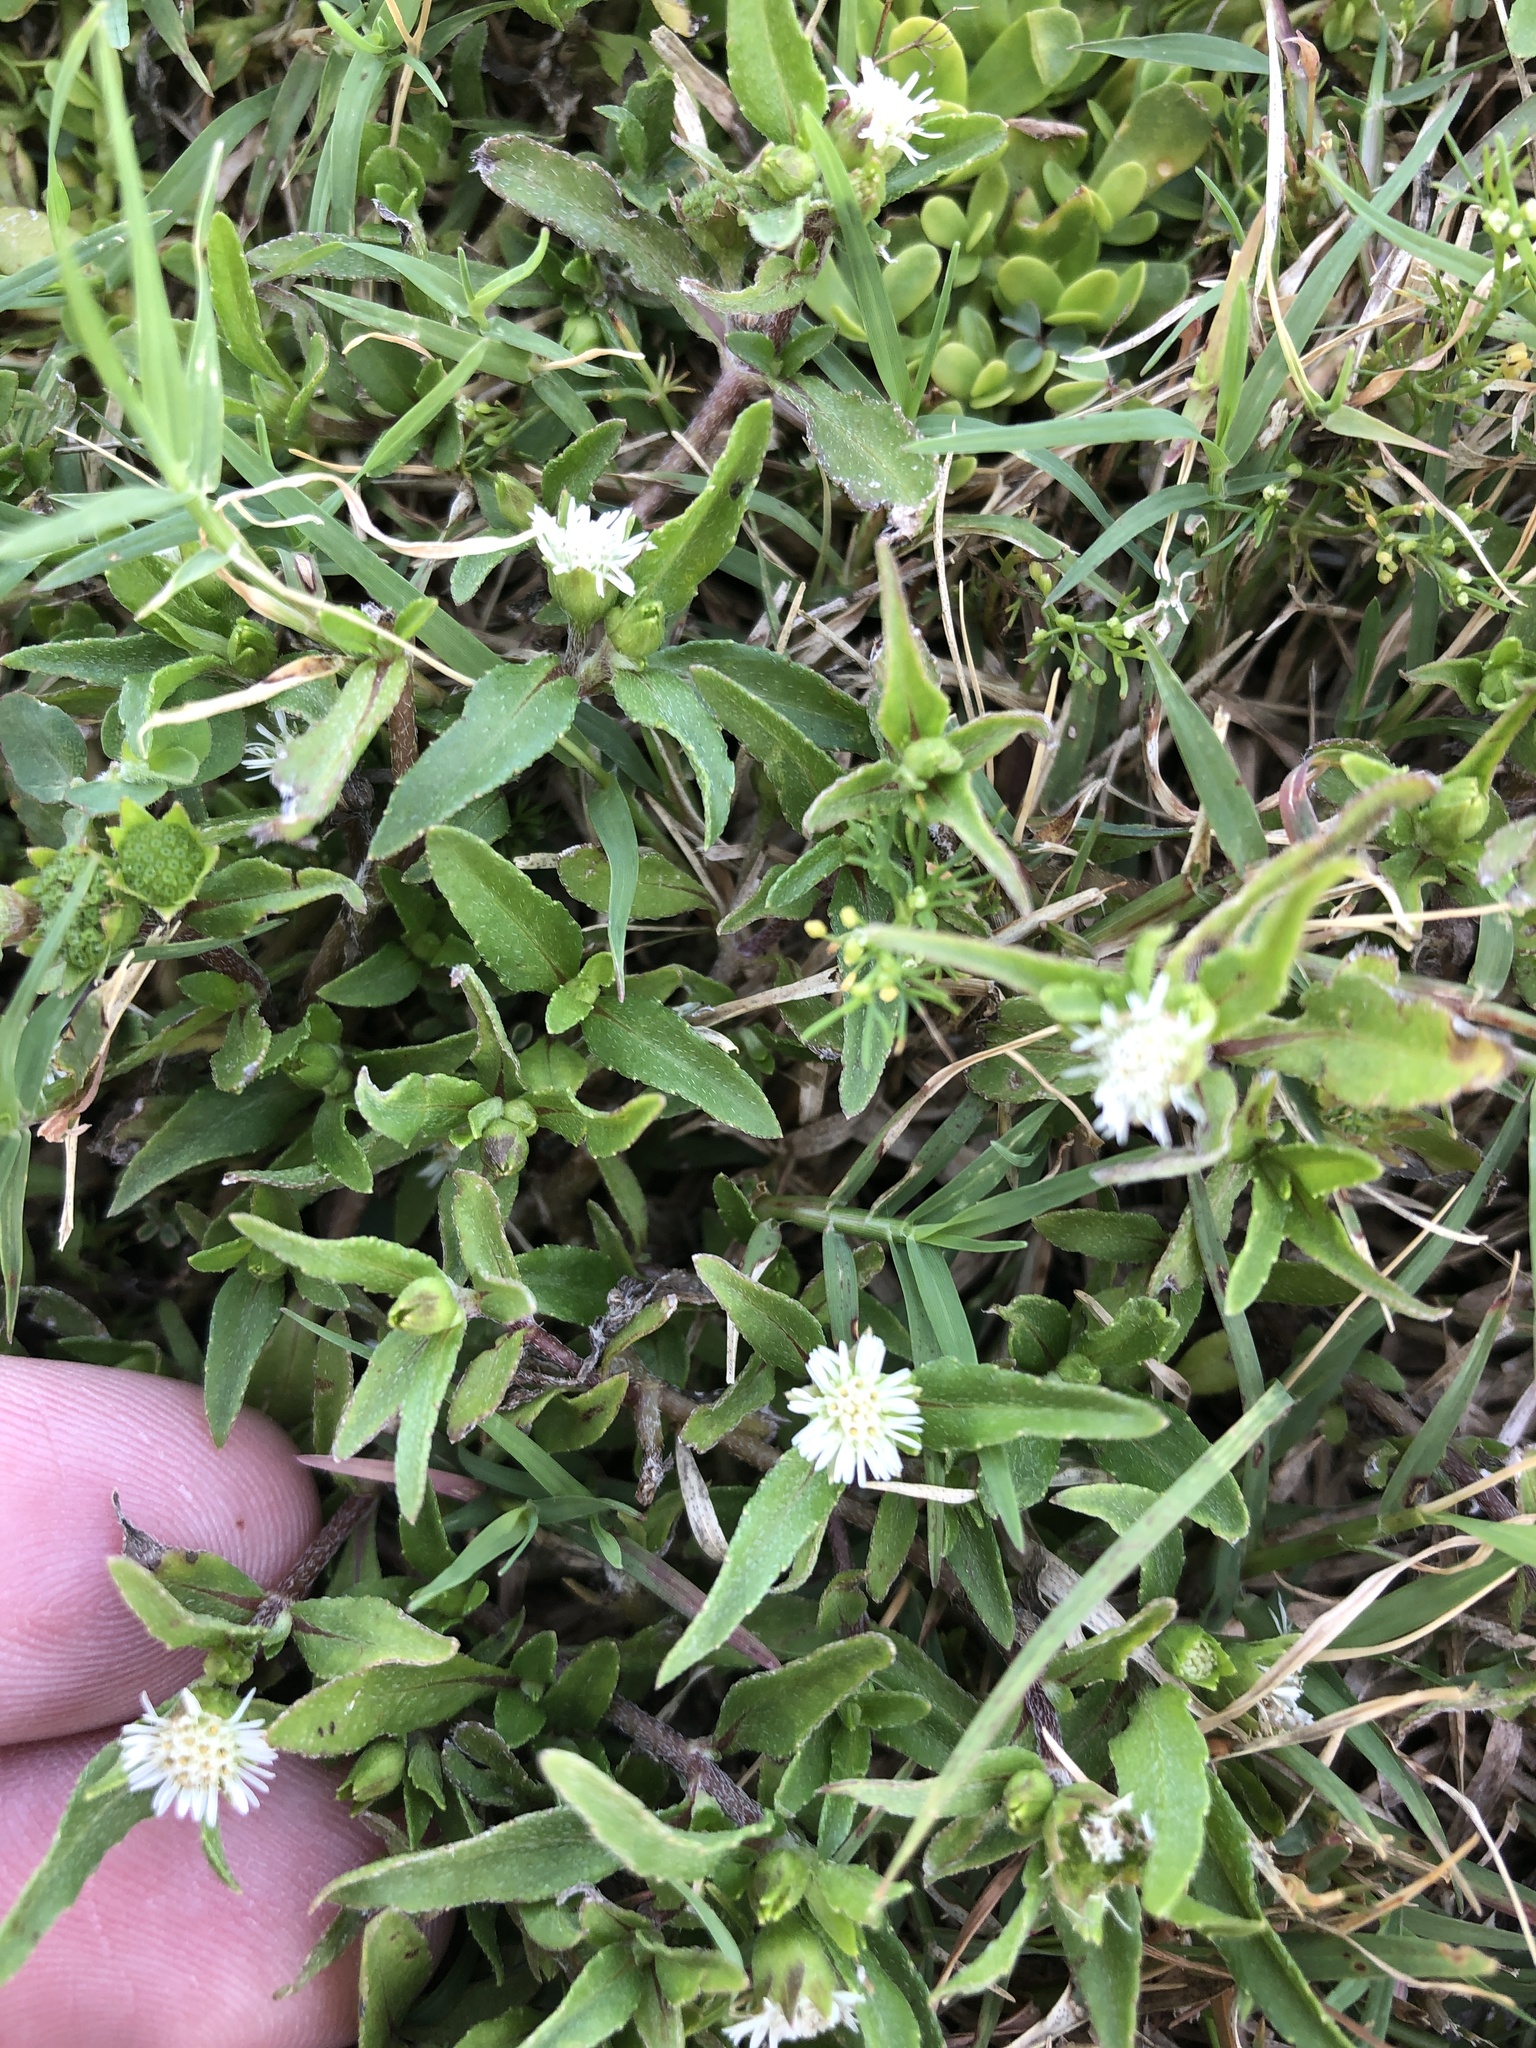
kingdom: Plantae
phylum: Tracheophyta
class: Magnoliopsida
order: Asterales
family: Asteraceae
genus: Eclipta
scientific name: Eclipta prostrata
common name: False daisy
